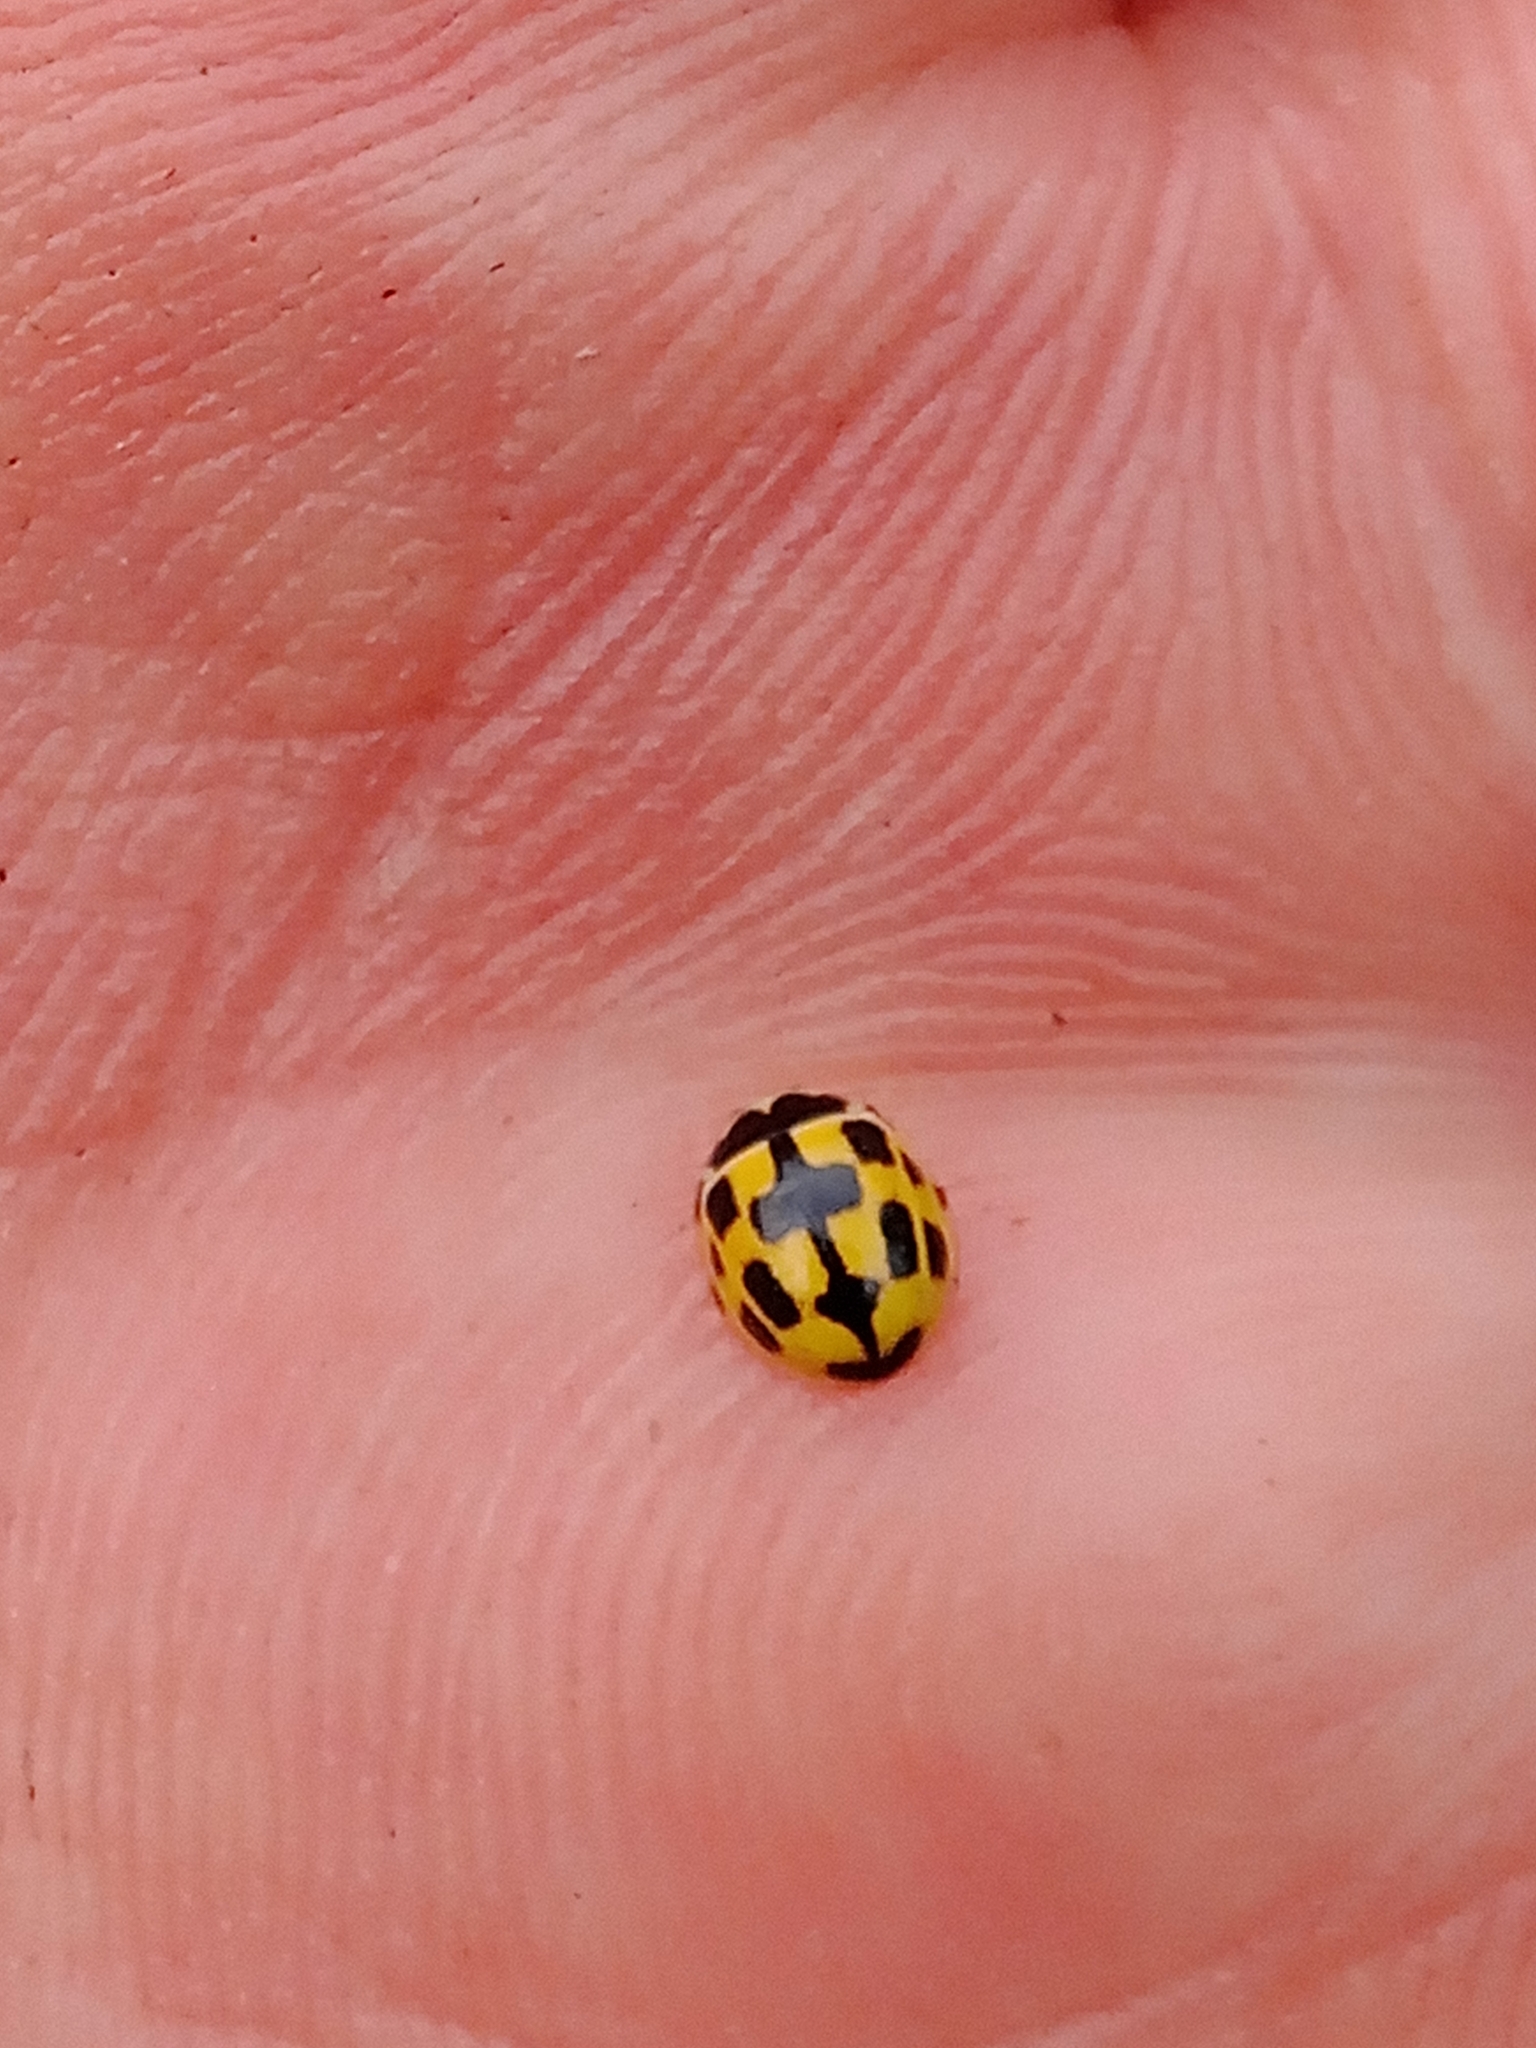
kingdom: Animalia
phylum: Arthropoda
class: Insecta
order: Coleoptera
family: Coccinellidae
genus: Propylaea
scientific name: Propylaea quatuordecimpunctata
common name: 14-spotted ladybird beetle
